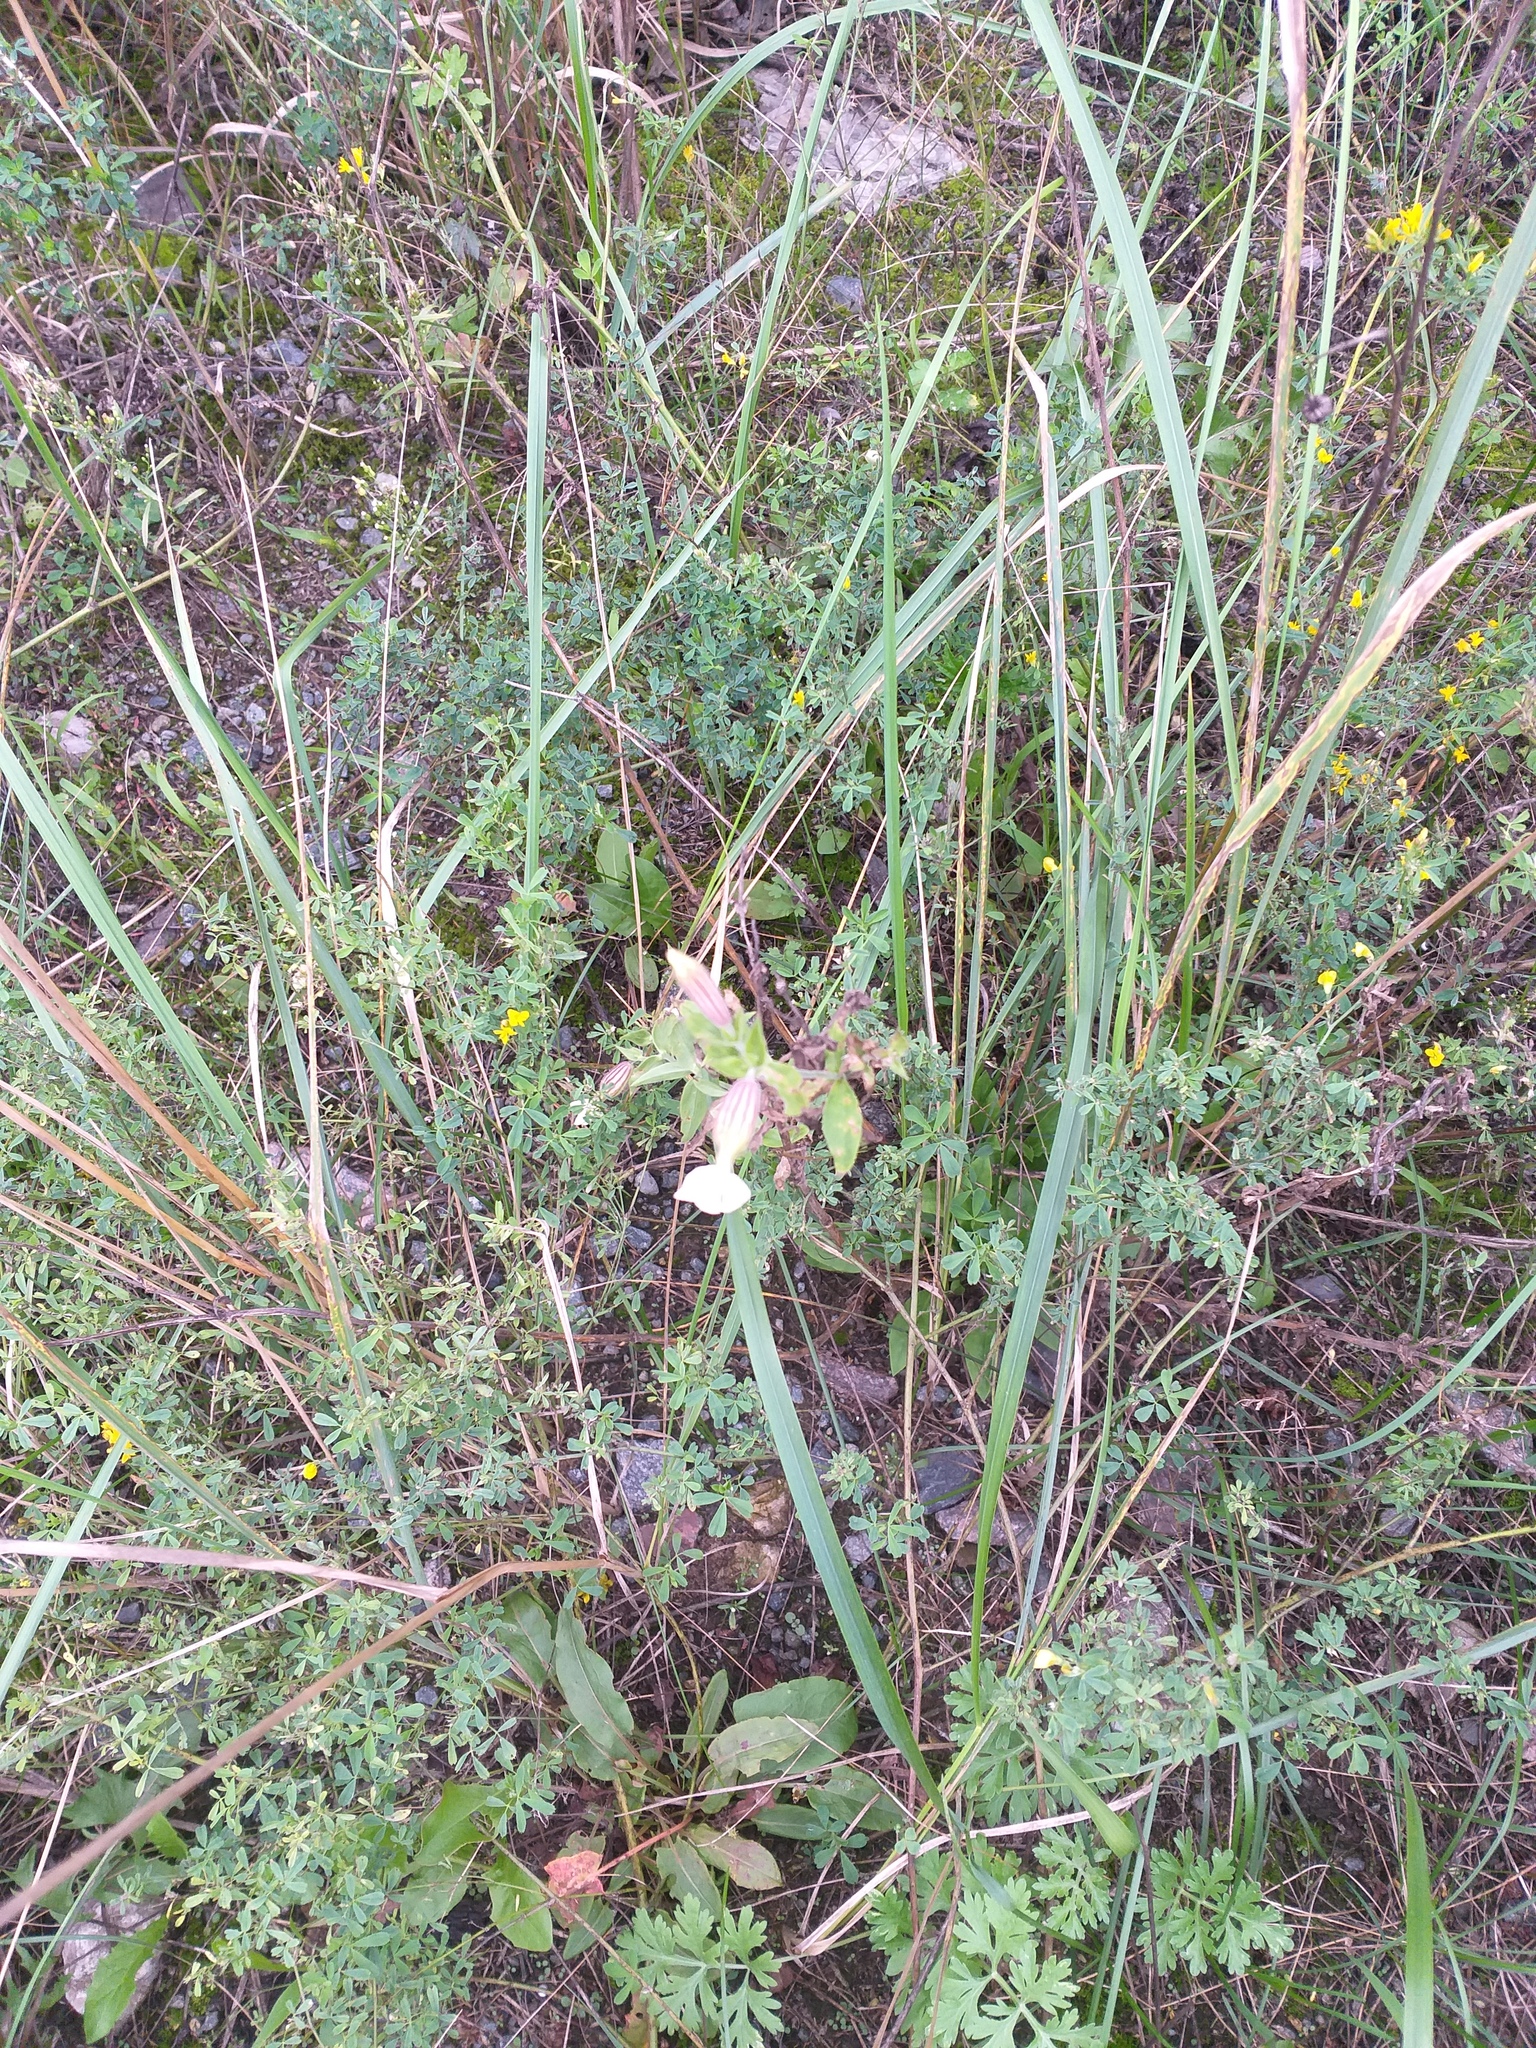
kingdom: Plantae
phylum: Tracheophyta
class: Magnoliopsida
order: Caryophyllales
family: Caryophyllaceae
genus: Silene
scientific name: Silene latifolia
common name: White campion
